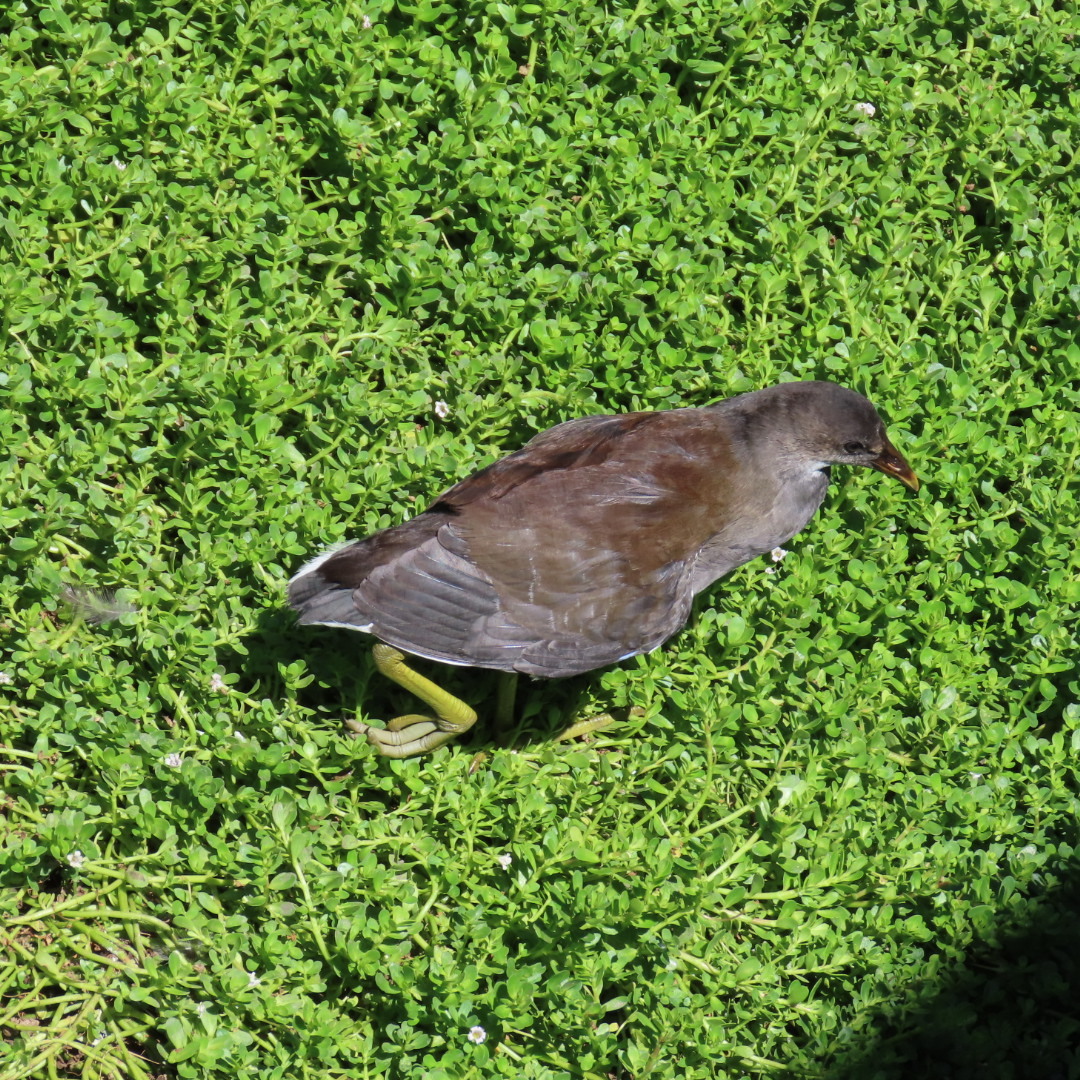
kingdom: Animalia
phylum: Chordata
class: Aves
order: Gruiformes
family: Rallidae
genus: Gallinula
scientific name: Gallinula chloropus
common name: Common moorhen
